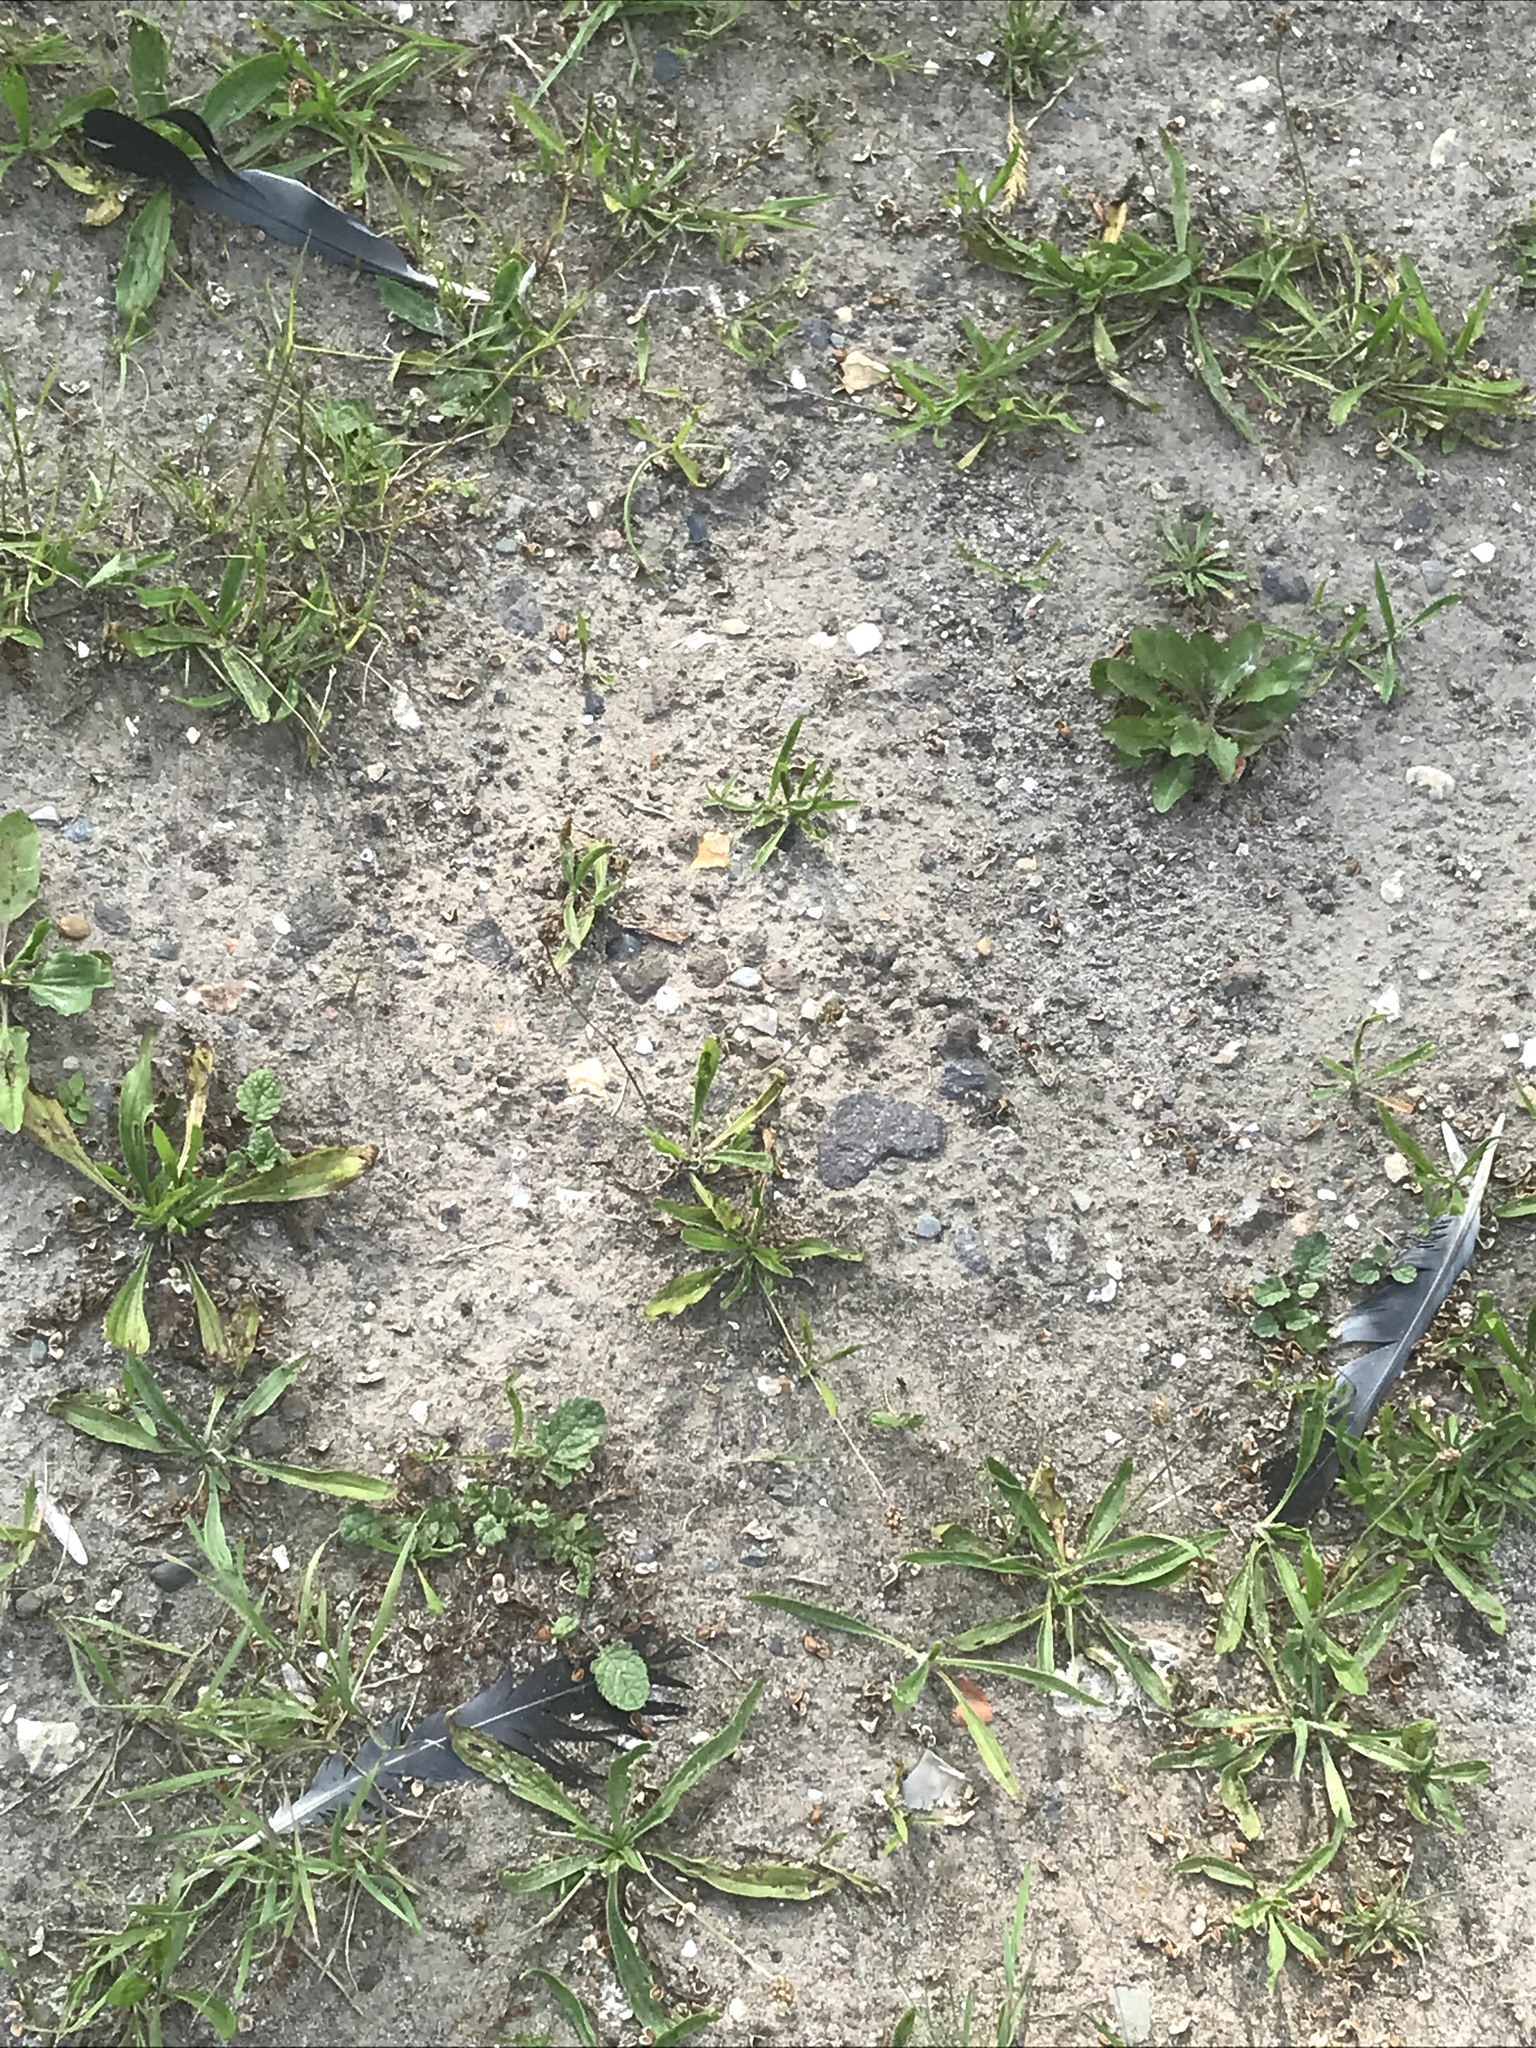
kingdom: Animalia
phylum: Chordata
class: Aves
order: Columbiformes
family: Columbidae
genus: Columba
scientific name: Columba palumbus
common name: Common wood pigeon
